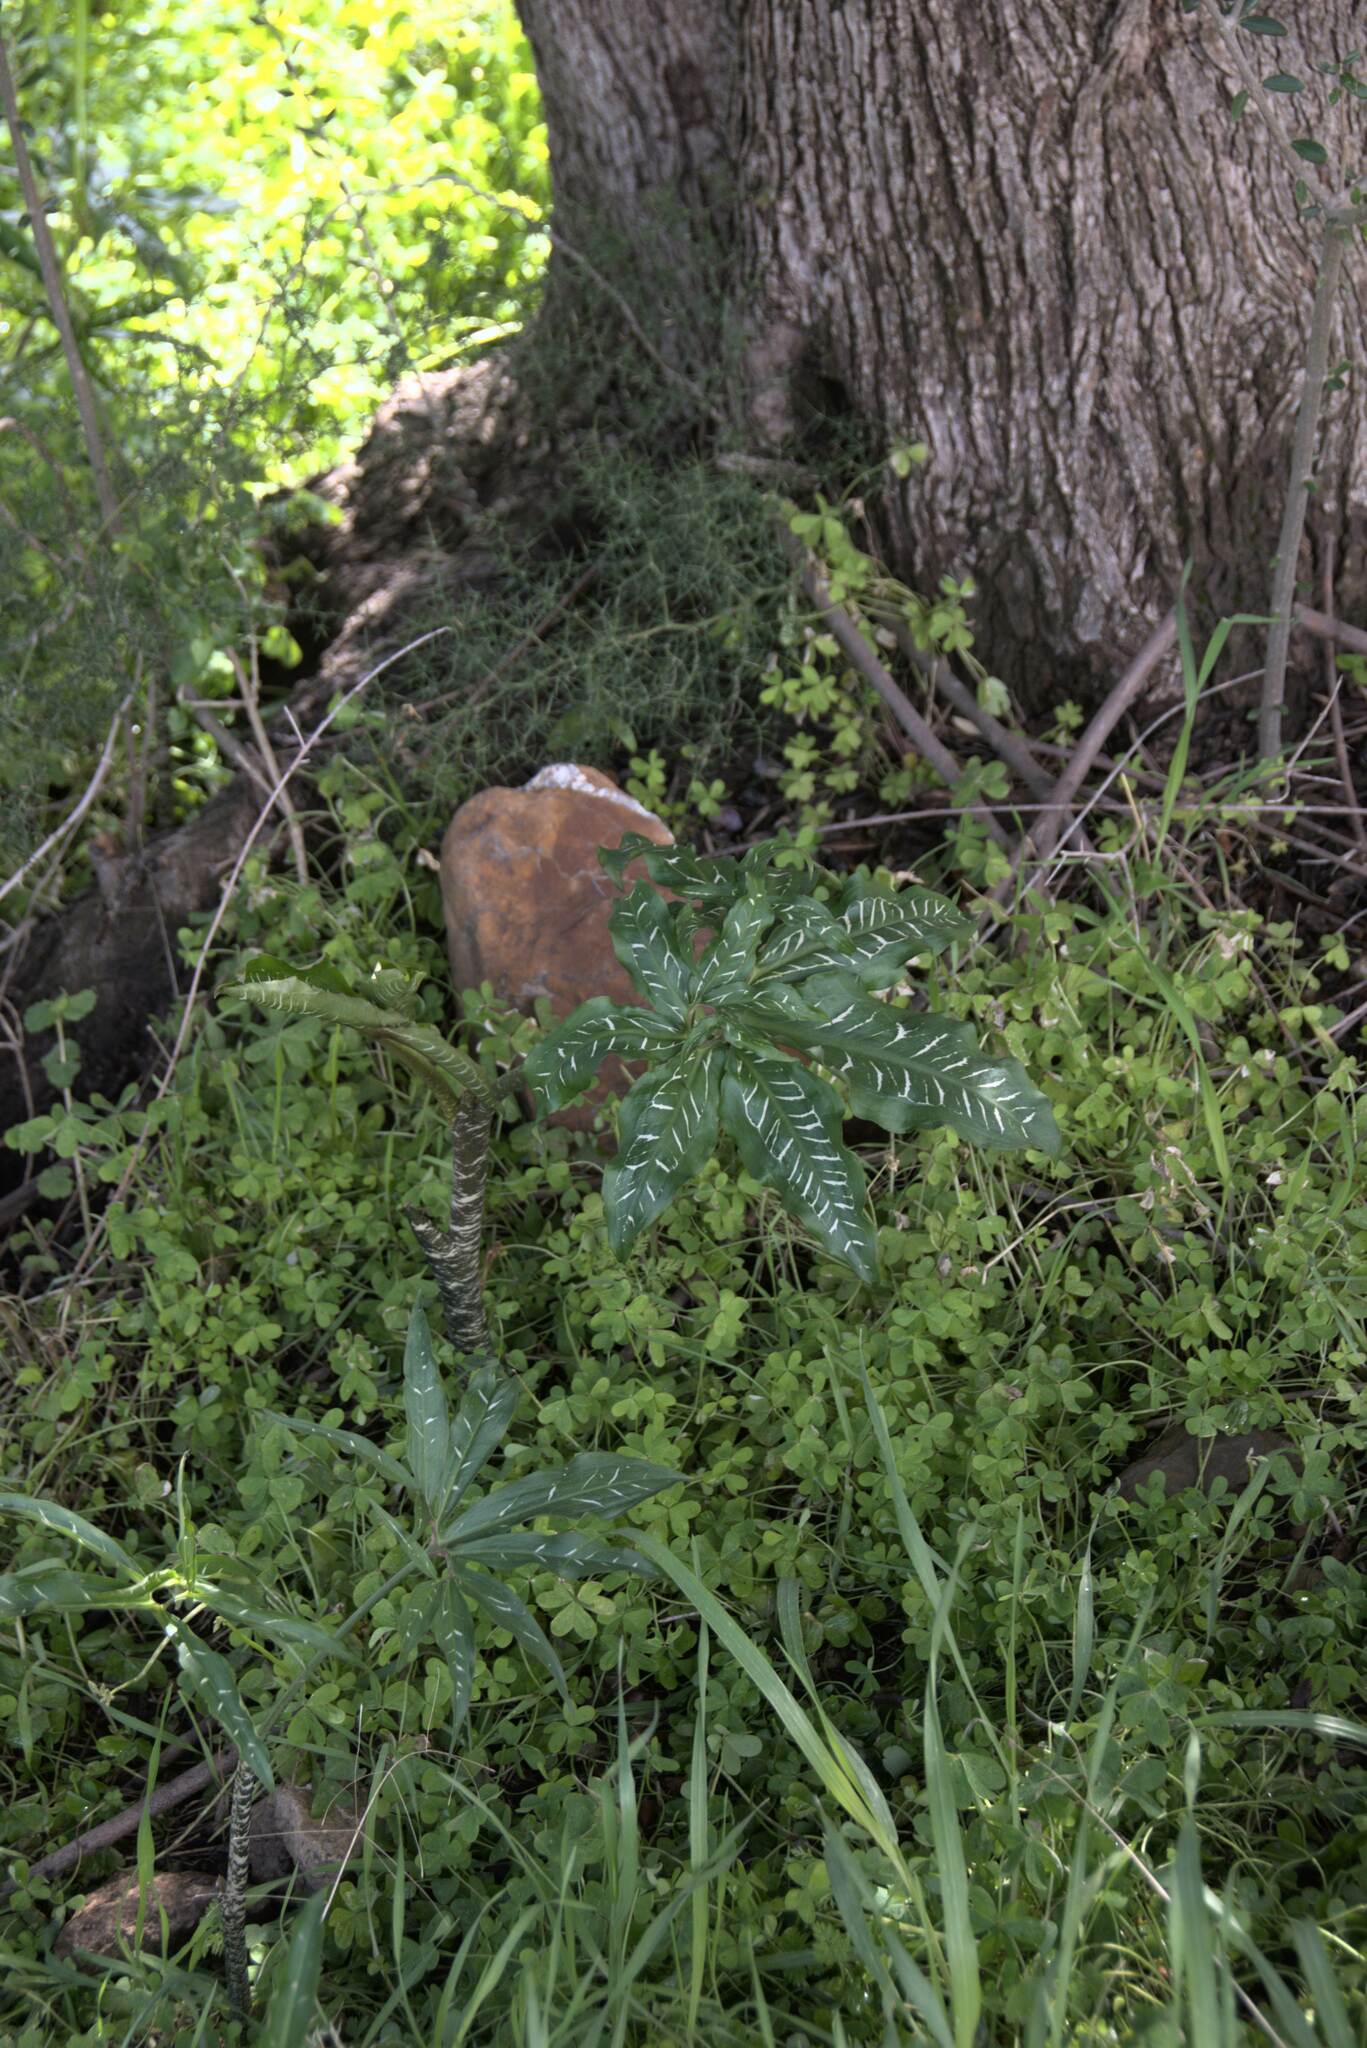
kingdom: Plantae
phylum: Tracheophyta
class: Liliopsida
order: Alismatales
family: Araceae
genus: Dracunculus
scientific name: Dracunculus vulgaris
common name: Dragon arum
